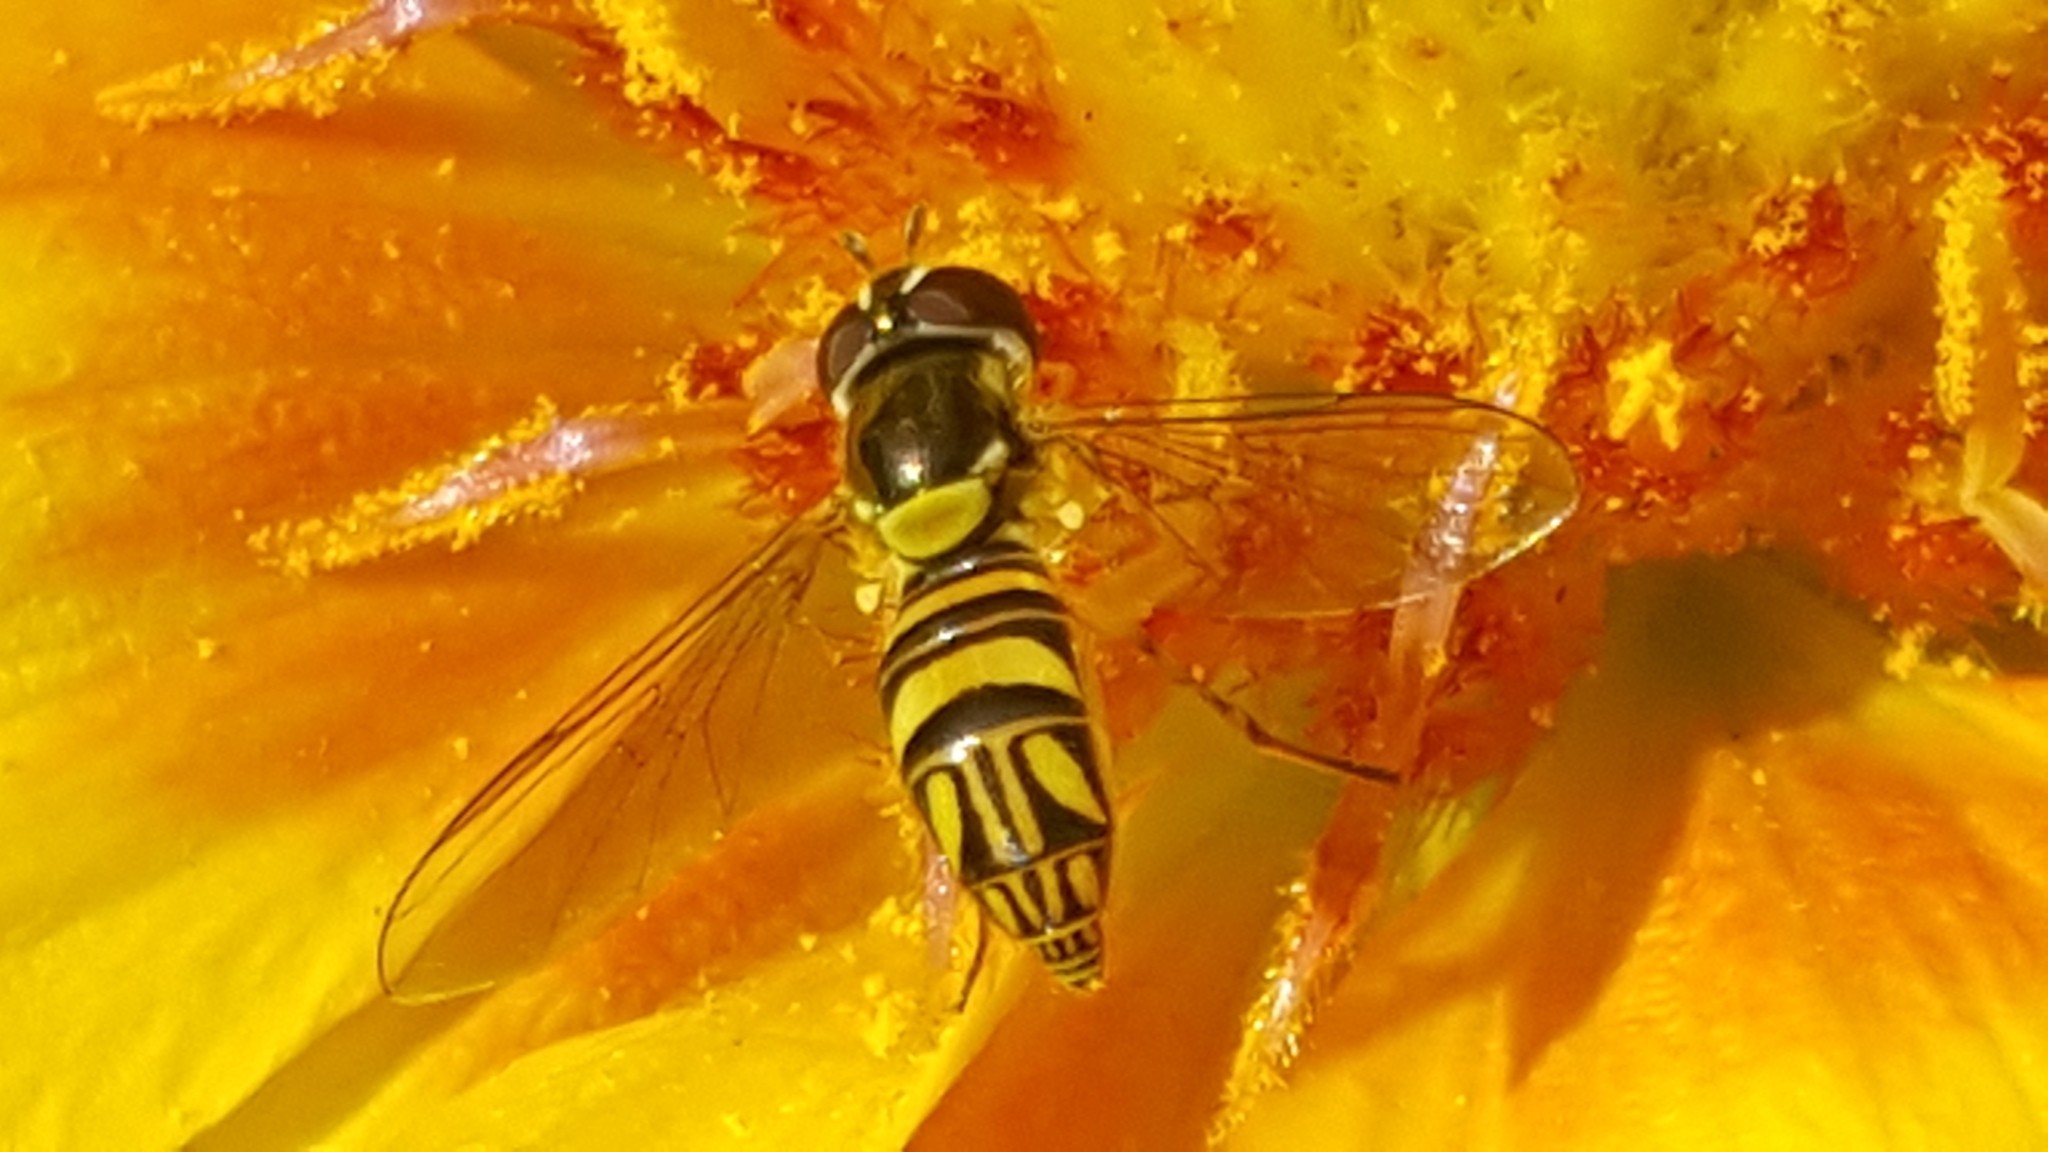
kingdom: Animalia
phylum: Arthropoda
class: Insecta
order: Diptera
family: Syrphidae
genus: Allograpta
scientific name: Allograpta obliqua
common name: Common oblique syrphid
